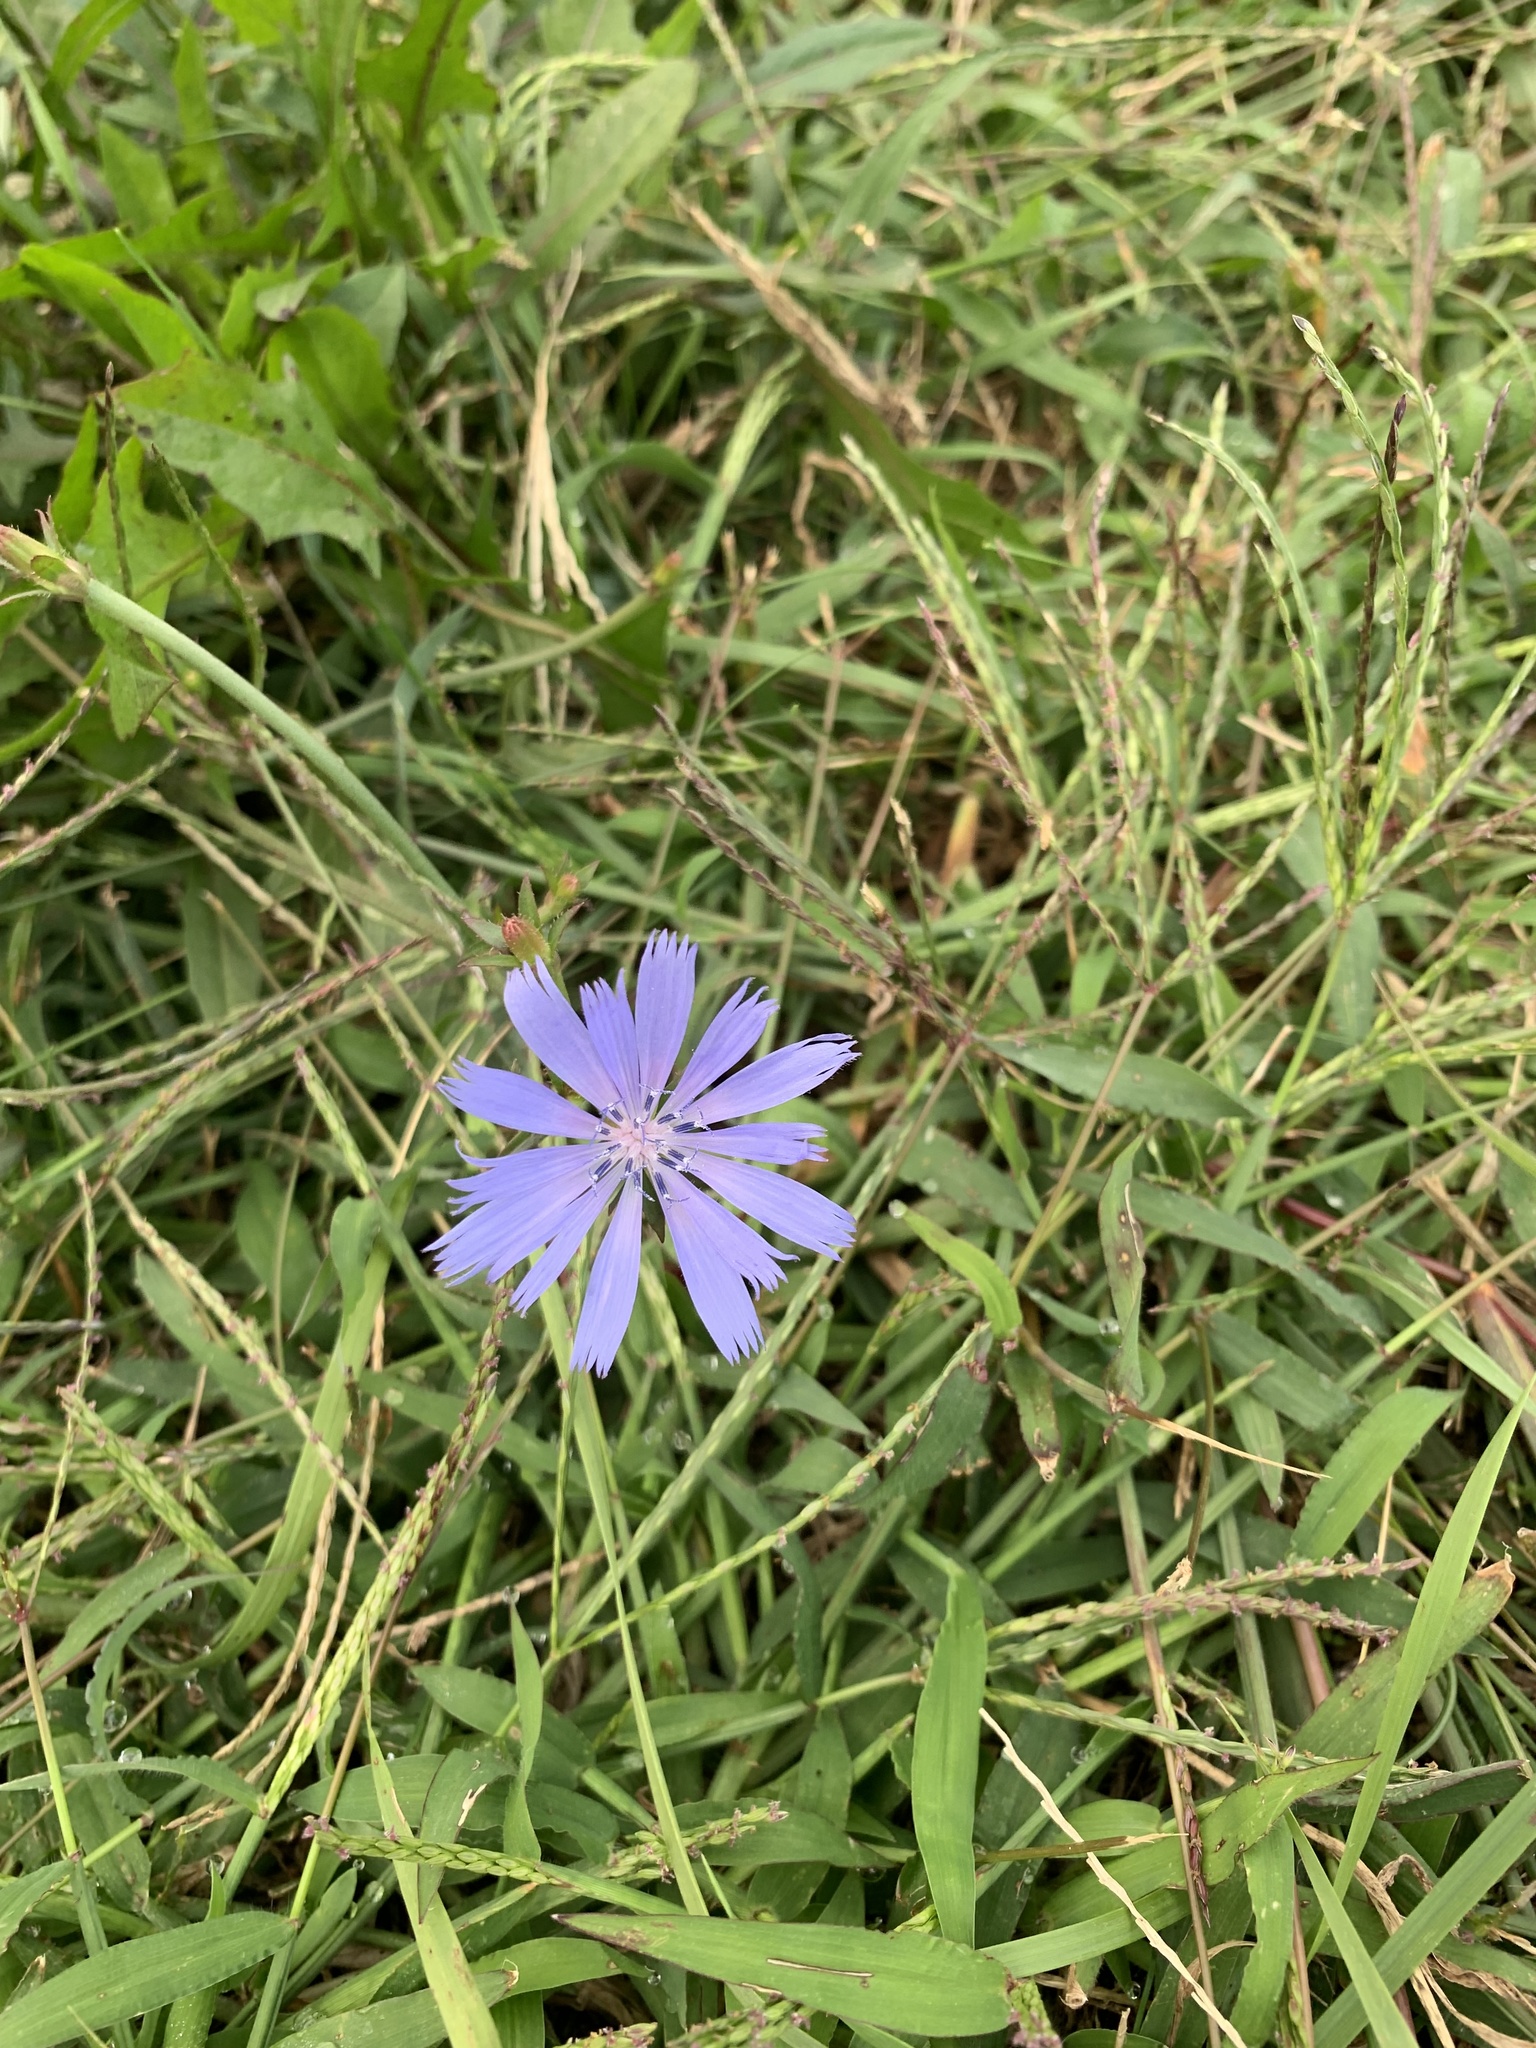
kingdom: Plantae
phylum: Tracheophyta
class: Magnoliopsida
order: Asterales
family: Asteraceae
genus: Cichorium
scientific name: Cichorium intybus
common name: Chicory
